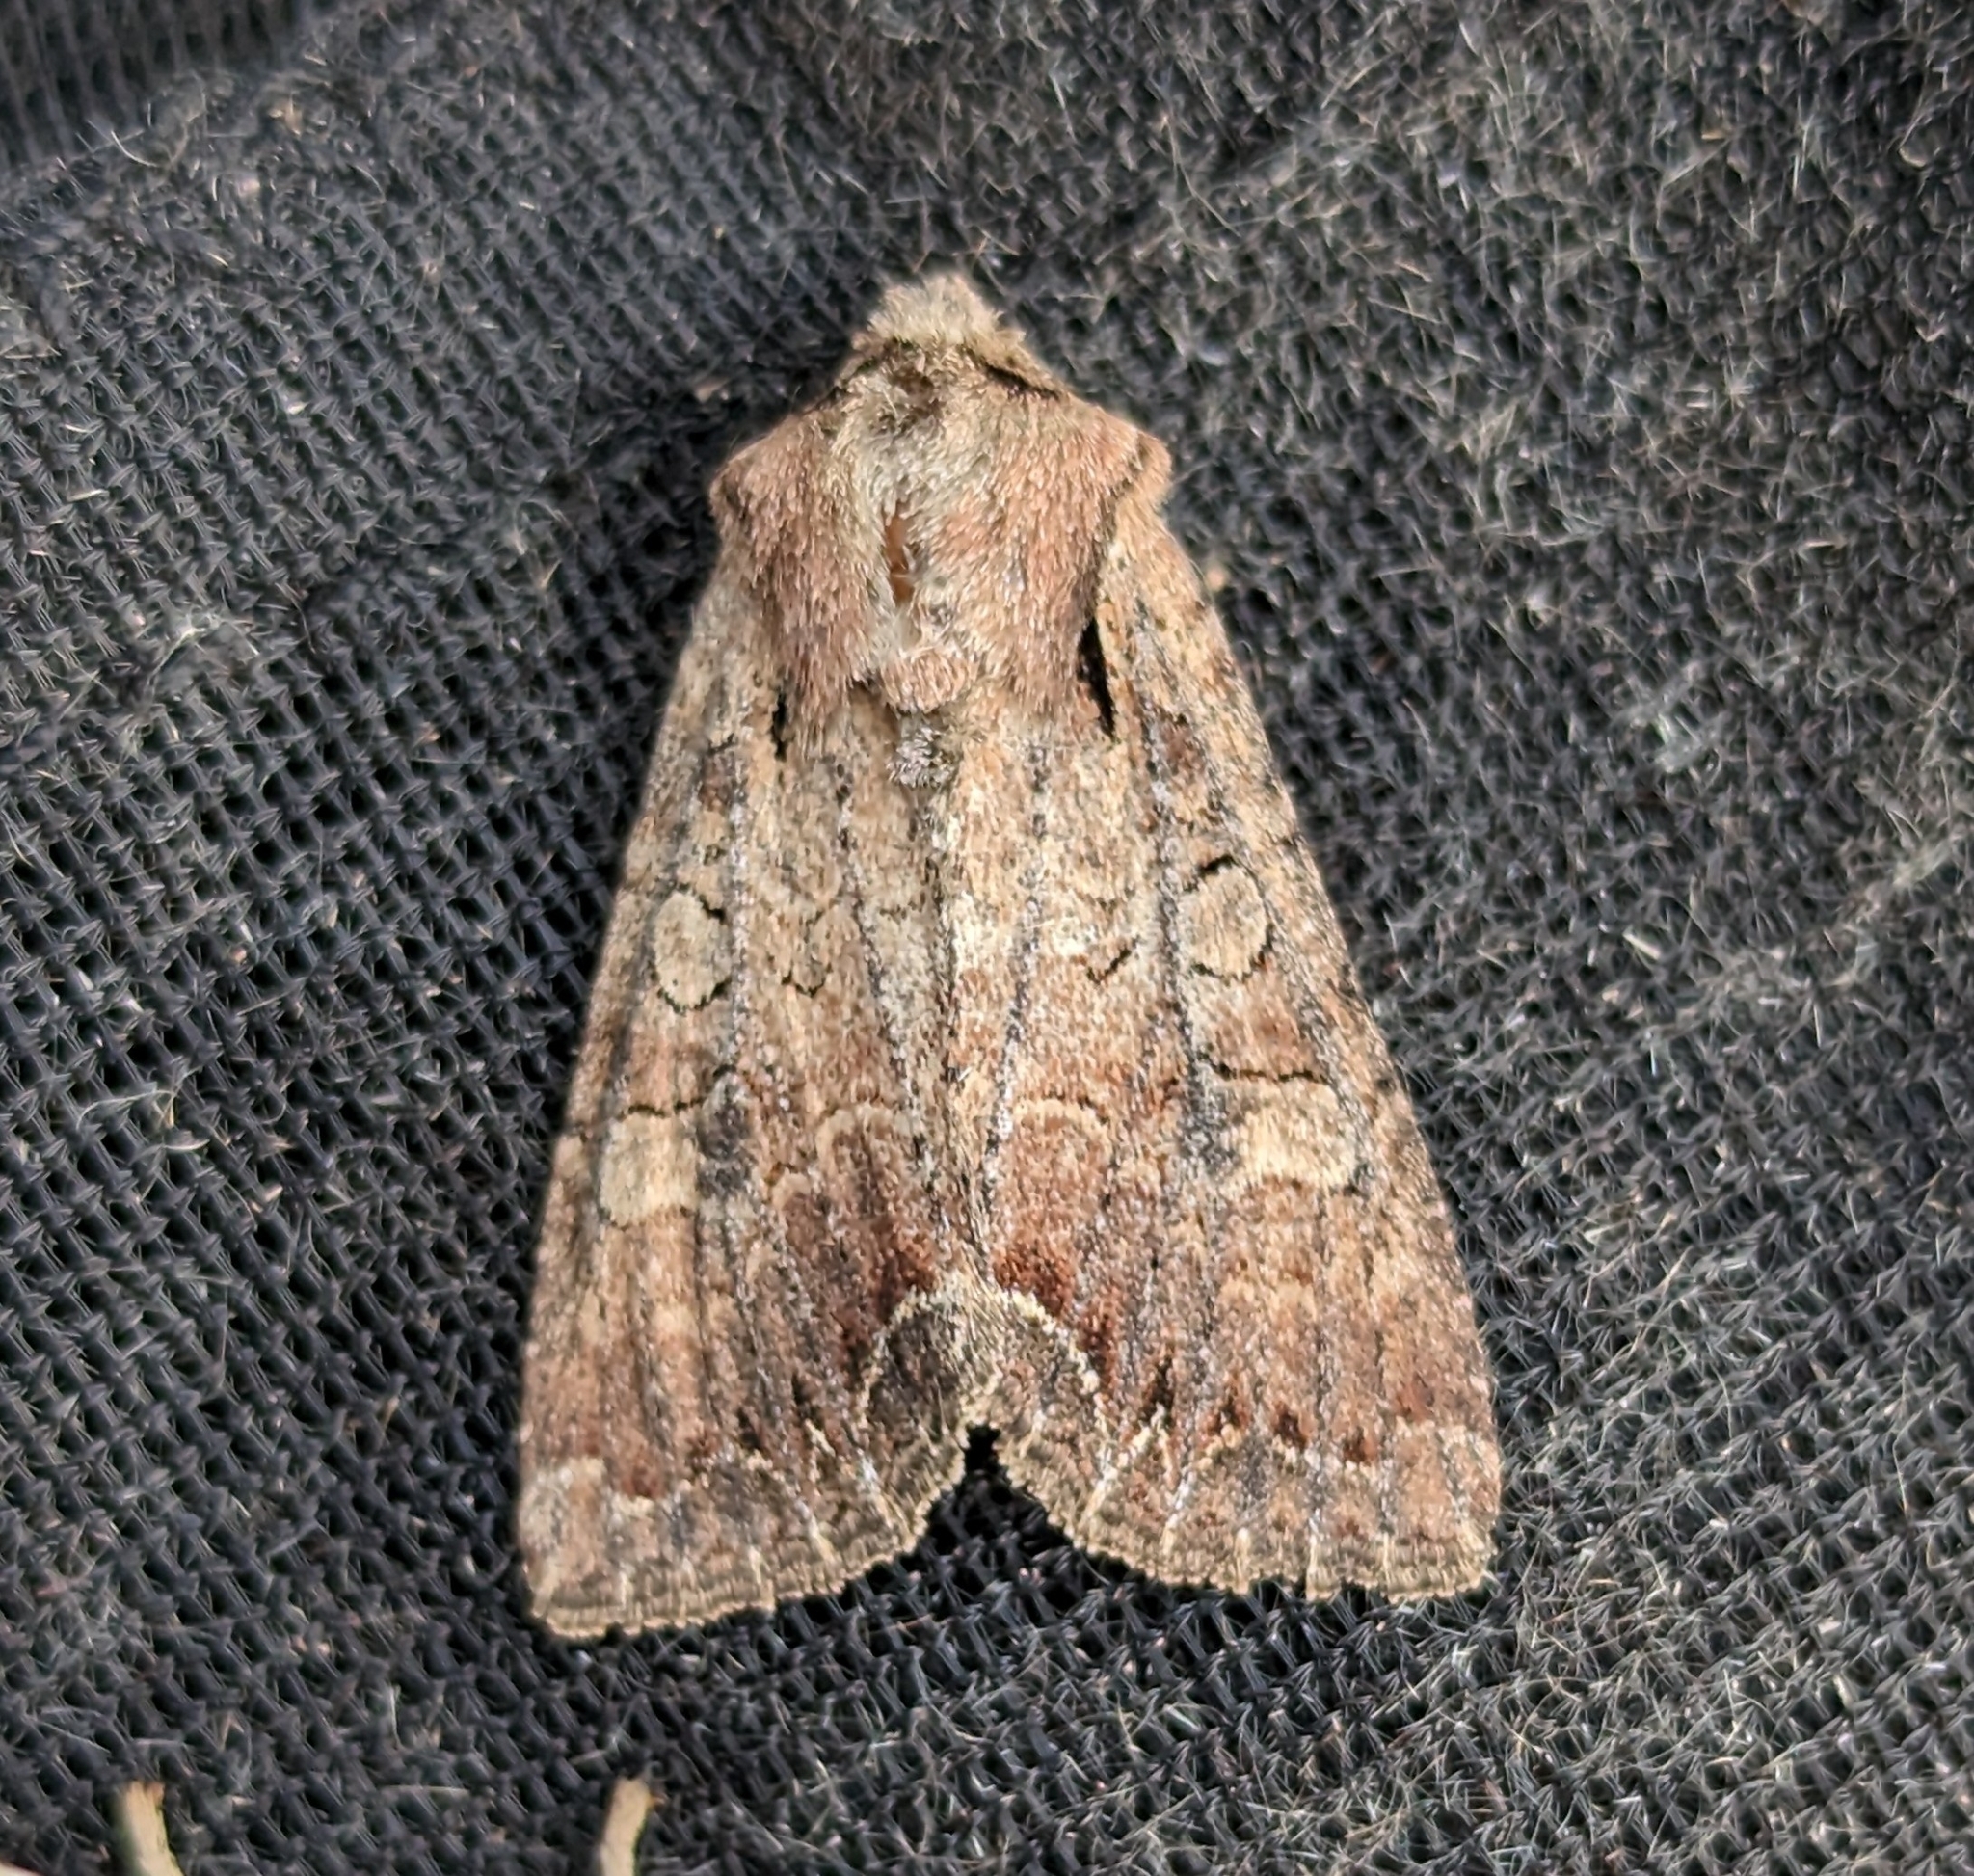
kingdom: Animalia
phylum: Arthropoda
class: Insecta
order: Lepidoptera
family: Noctuidae
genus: Lacanobia
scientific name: Lacanobia radix
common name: Garden arches moth
